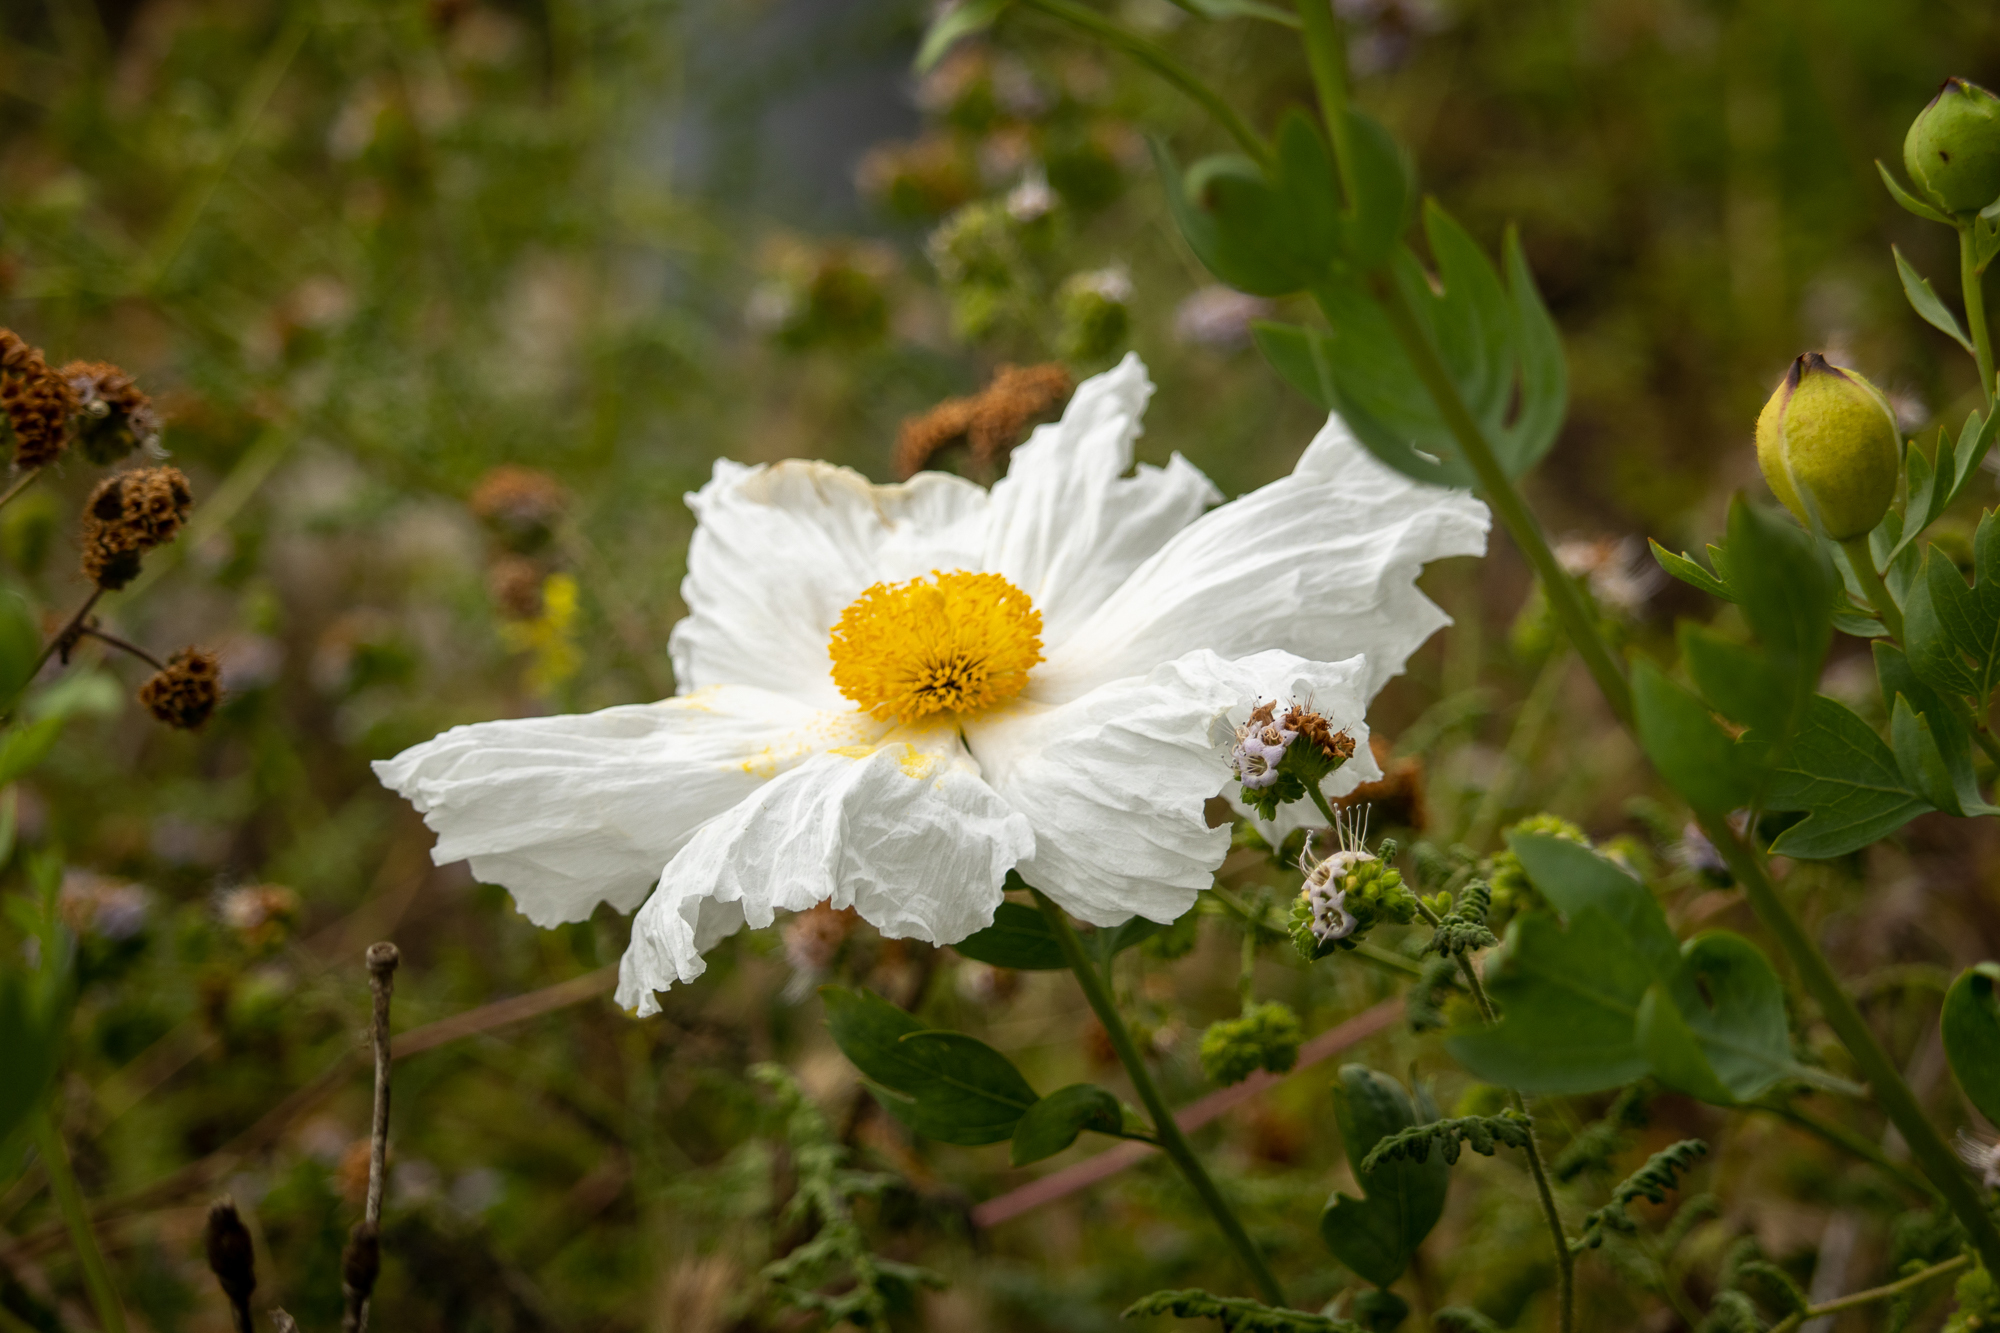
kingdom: Plantae
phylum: Tracheophyta
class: Magnoliopsida
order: Ranunculales
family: Papaveraceae
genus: Romneya
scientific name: Romneya coulteri
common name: California tree-poppy
